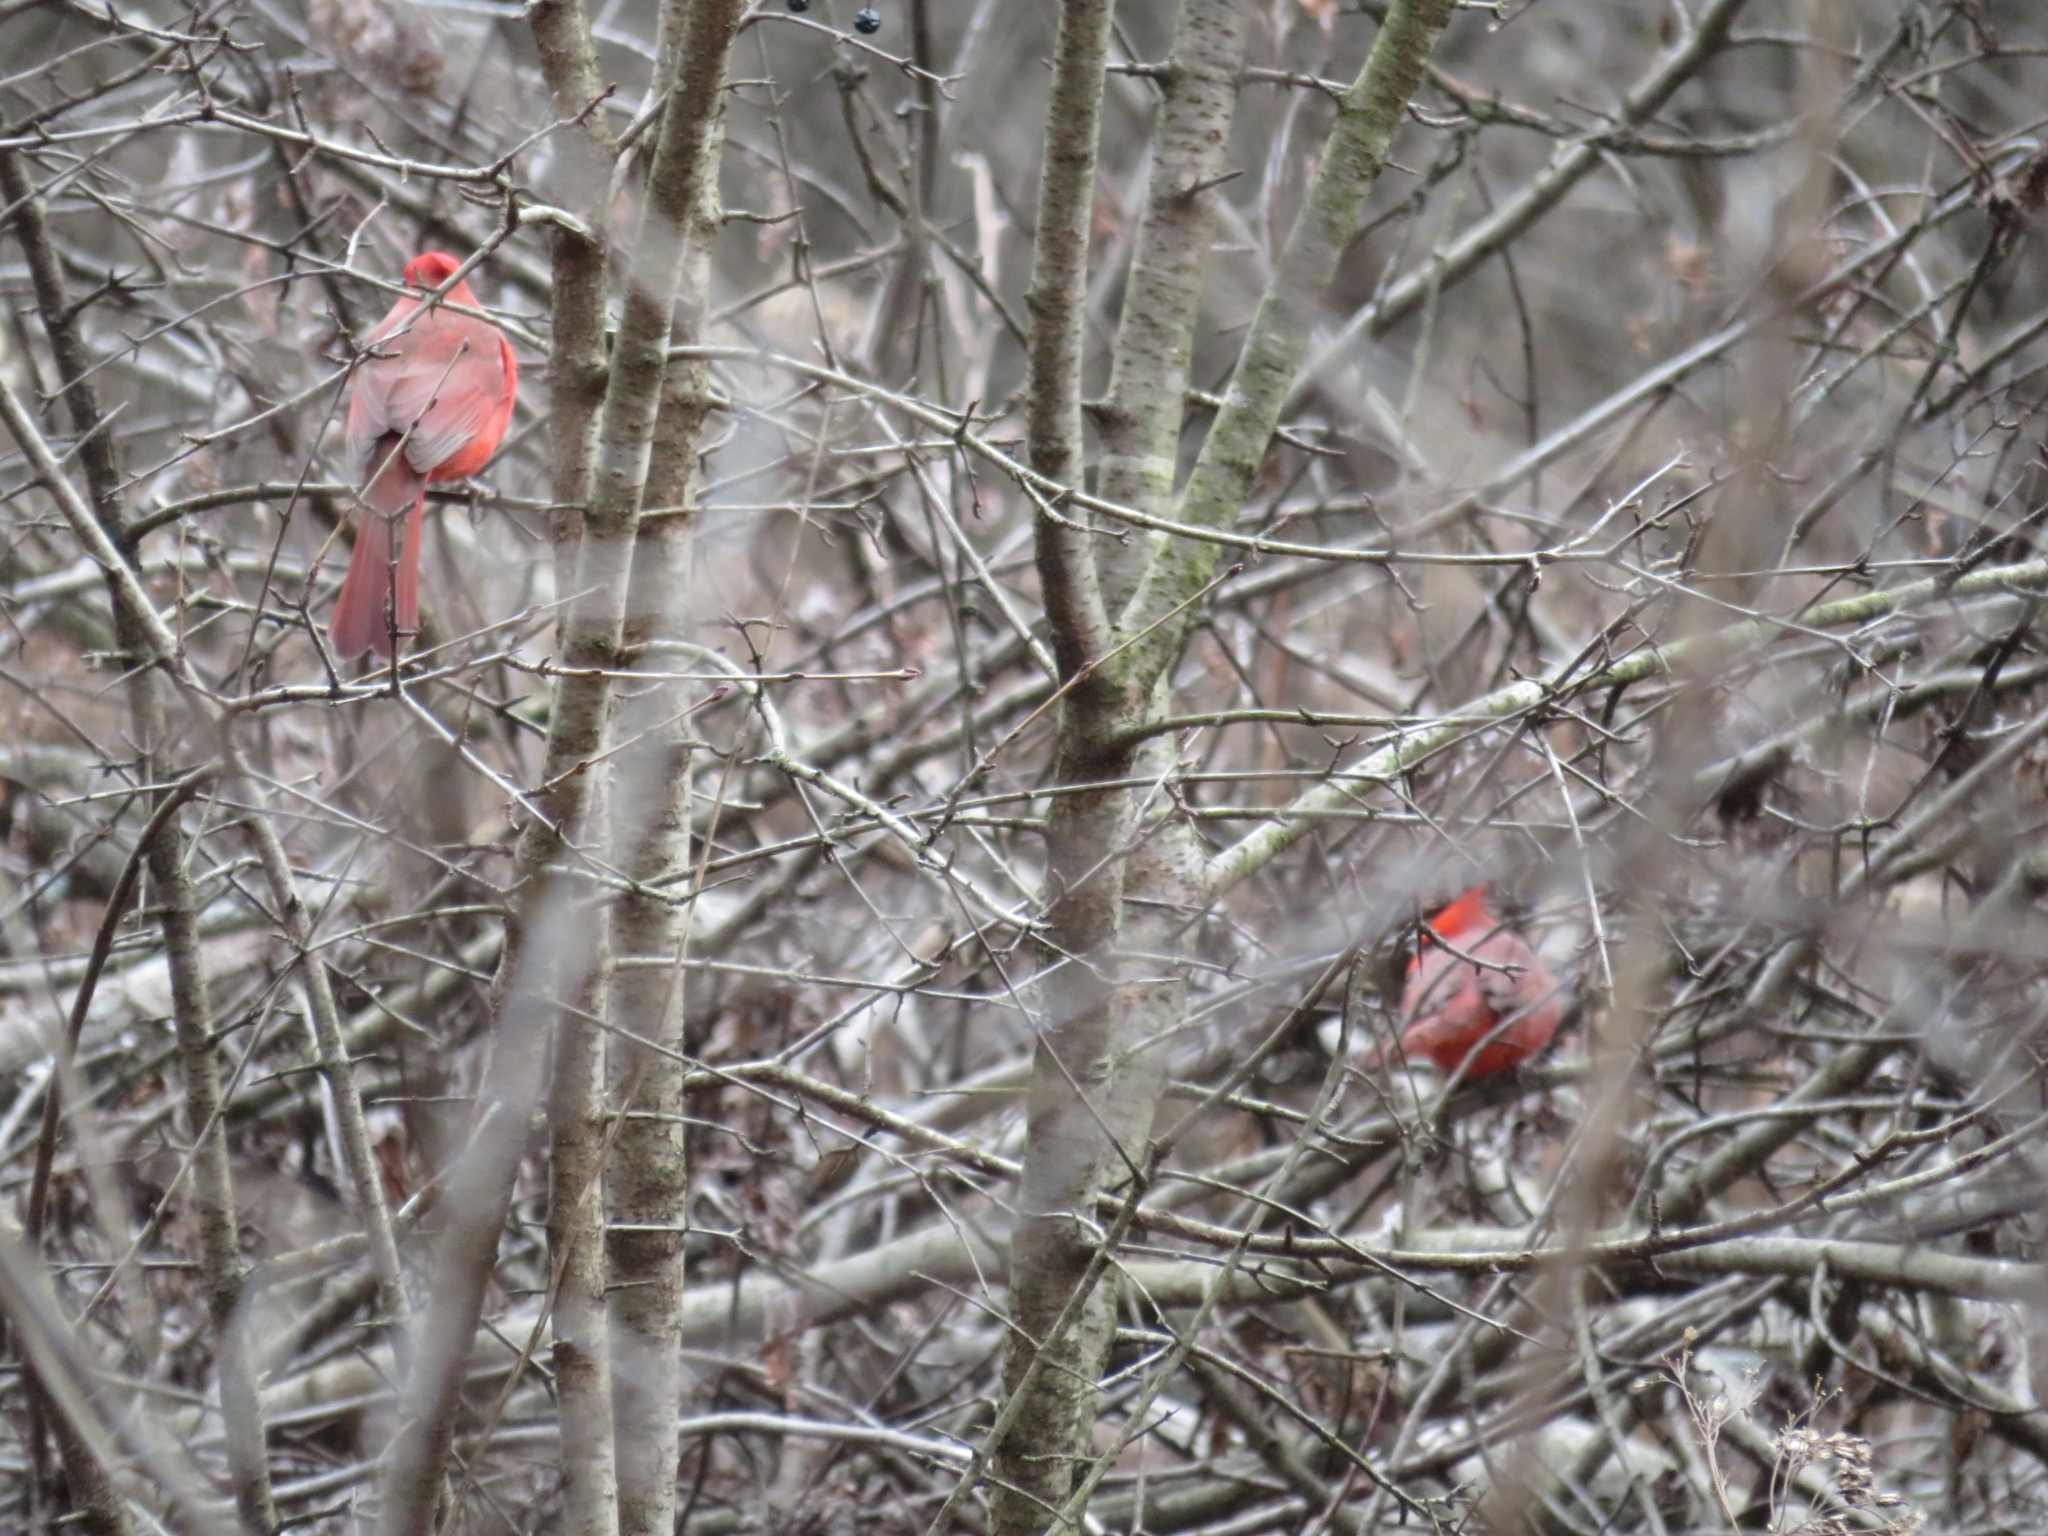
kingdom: Animalia
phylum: Chordata
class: Aves
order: Passeriformes
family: Cardinalidae
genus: Cardinalis
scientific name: Cardinalis cardinalis
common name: Northern cardinal
